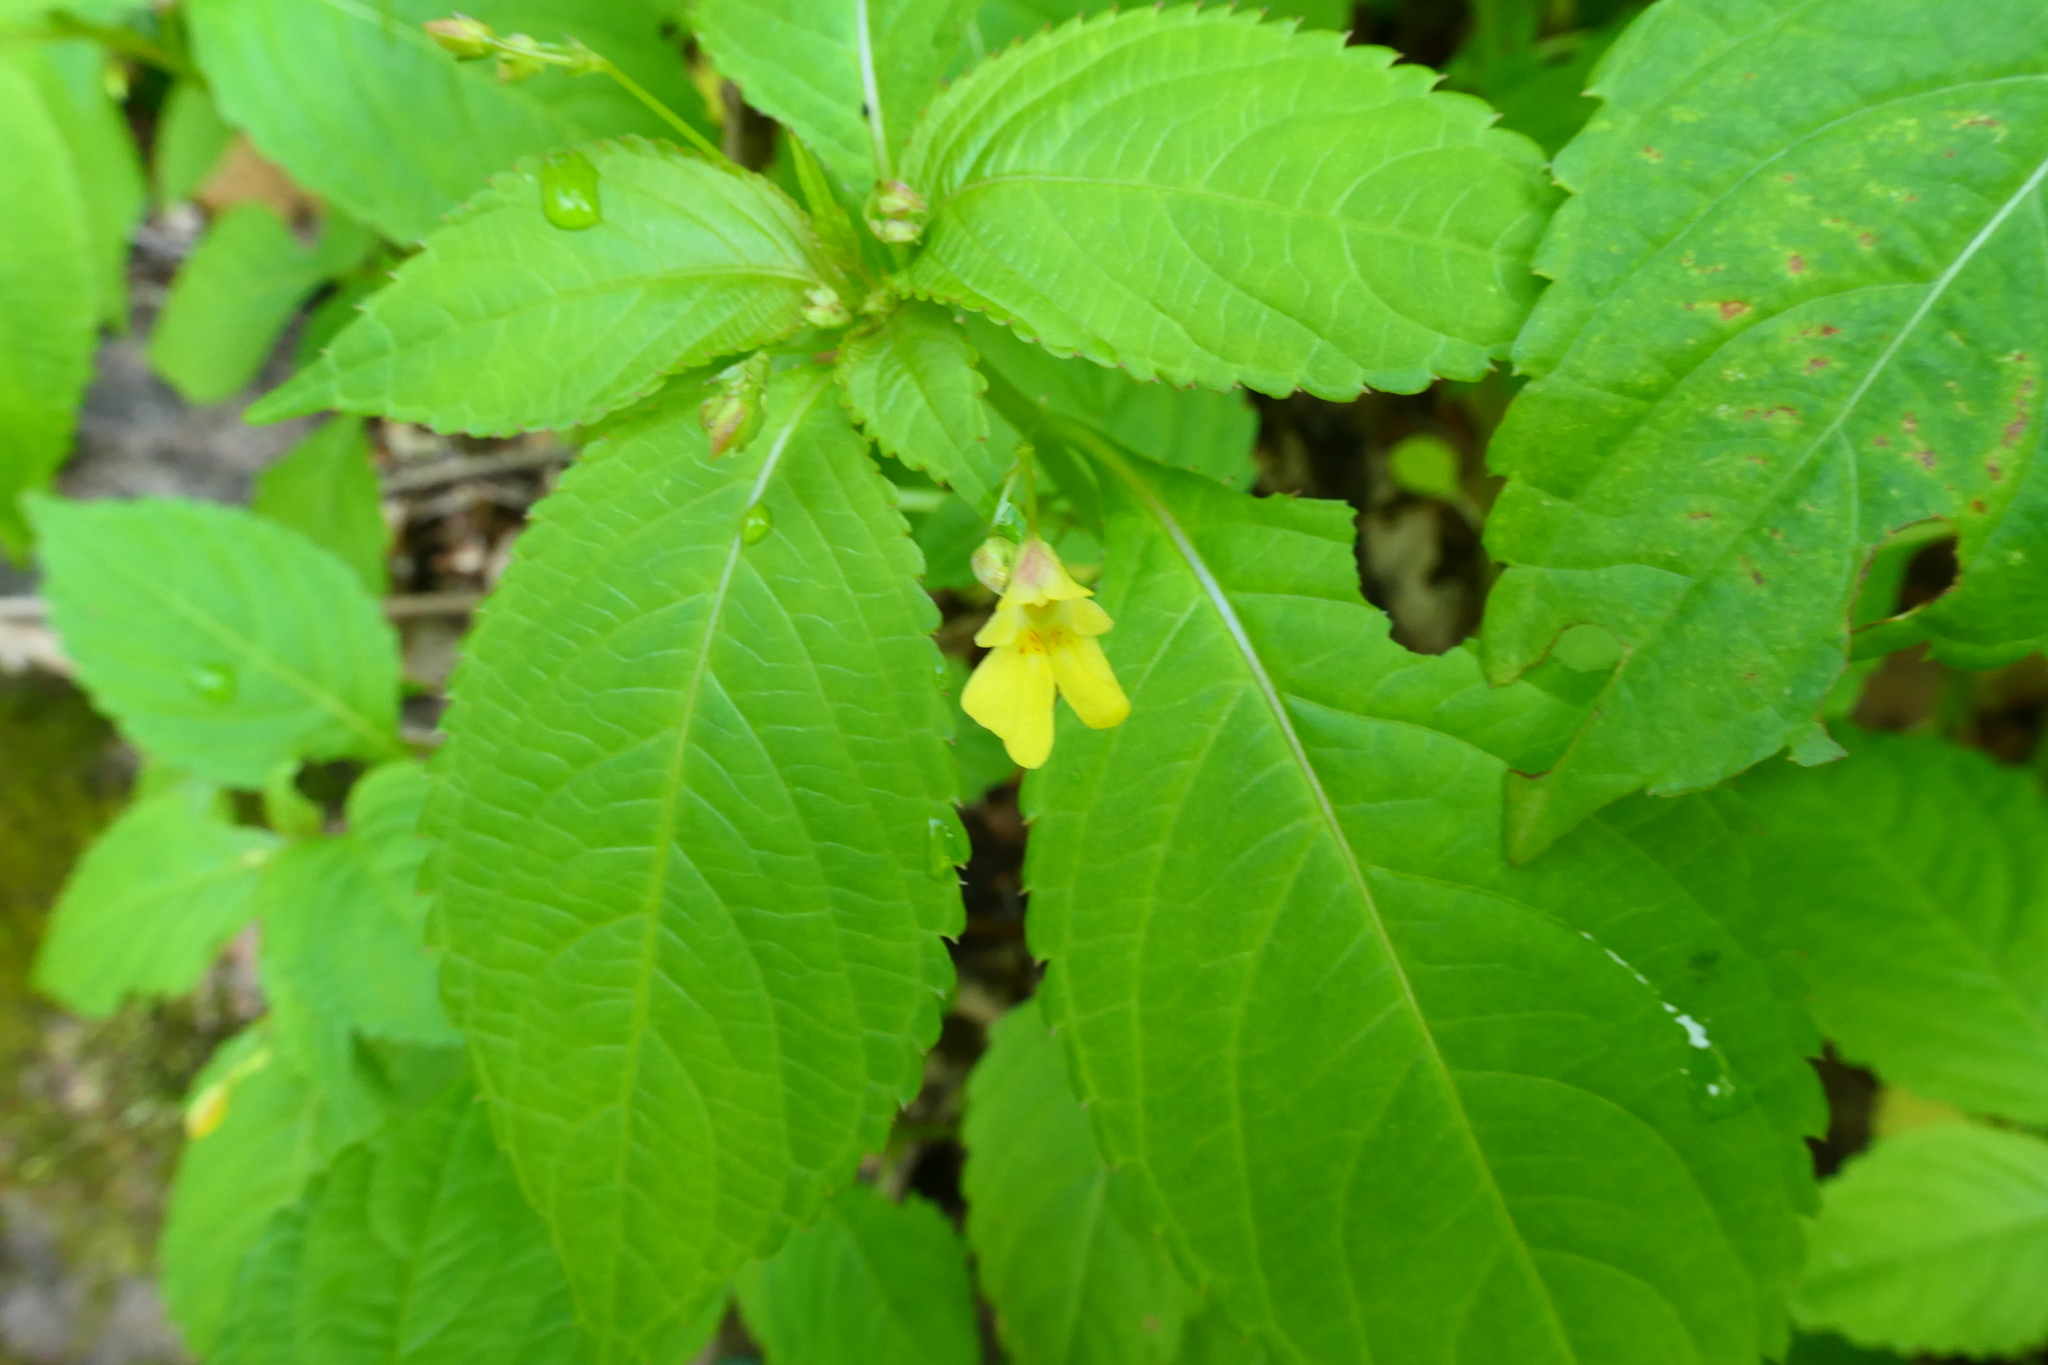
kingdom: Plantae
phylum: Tracheophyta
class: Magnoliopsida
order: Ericales
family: Balsaminaceae
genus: Impatiens
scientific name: Impatiens parviflora
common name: Small balsam
